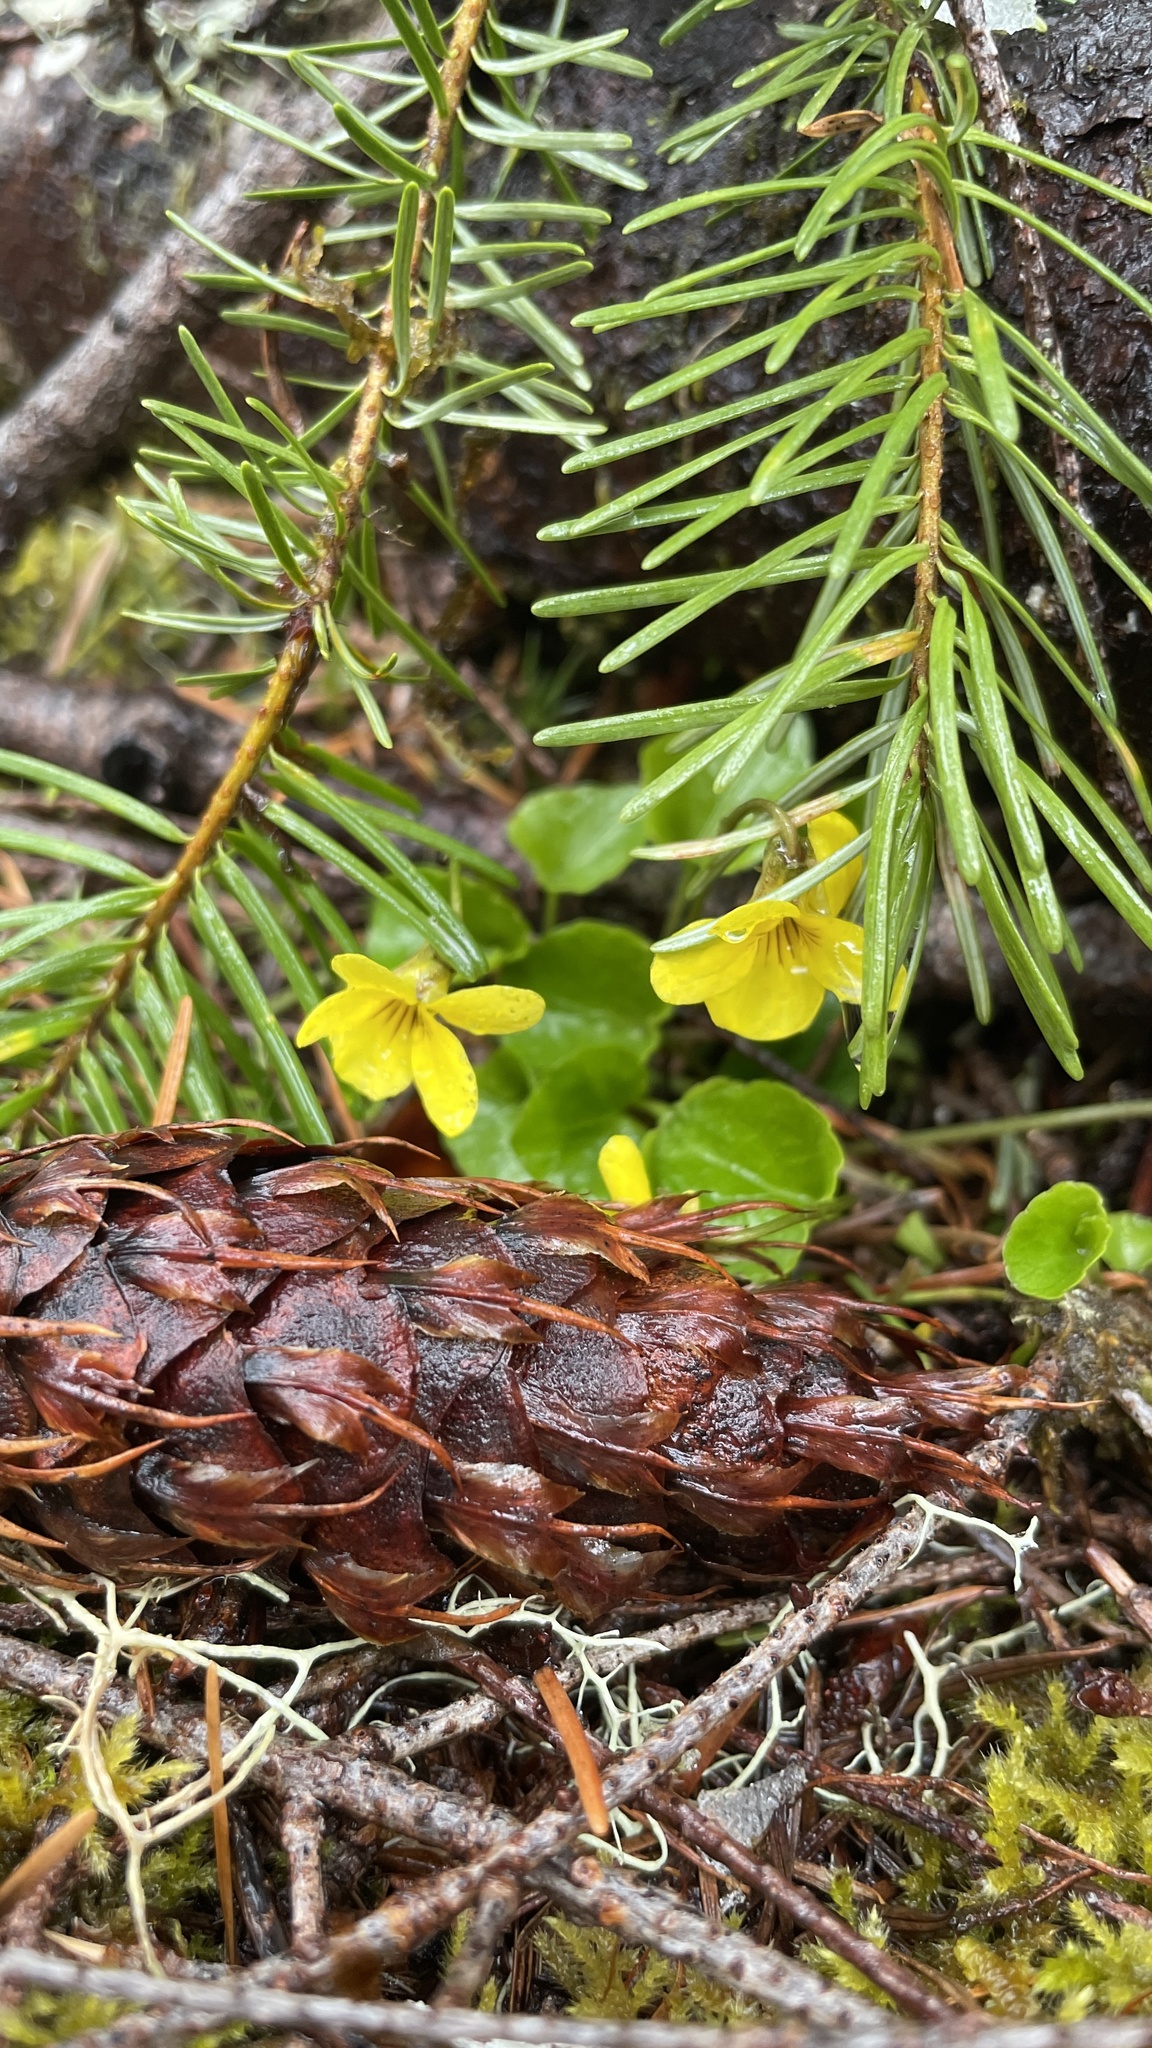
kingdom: Plantae
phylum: Tracheophyta
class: Magnoliopsida
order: Malpighiales
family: Violaceae
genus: Viola
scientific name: Viola sempervirens
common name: Evergreen violet
